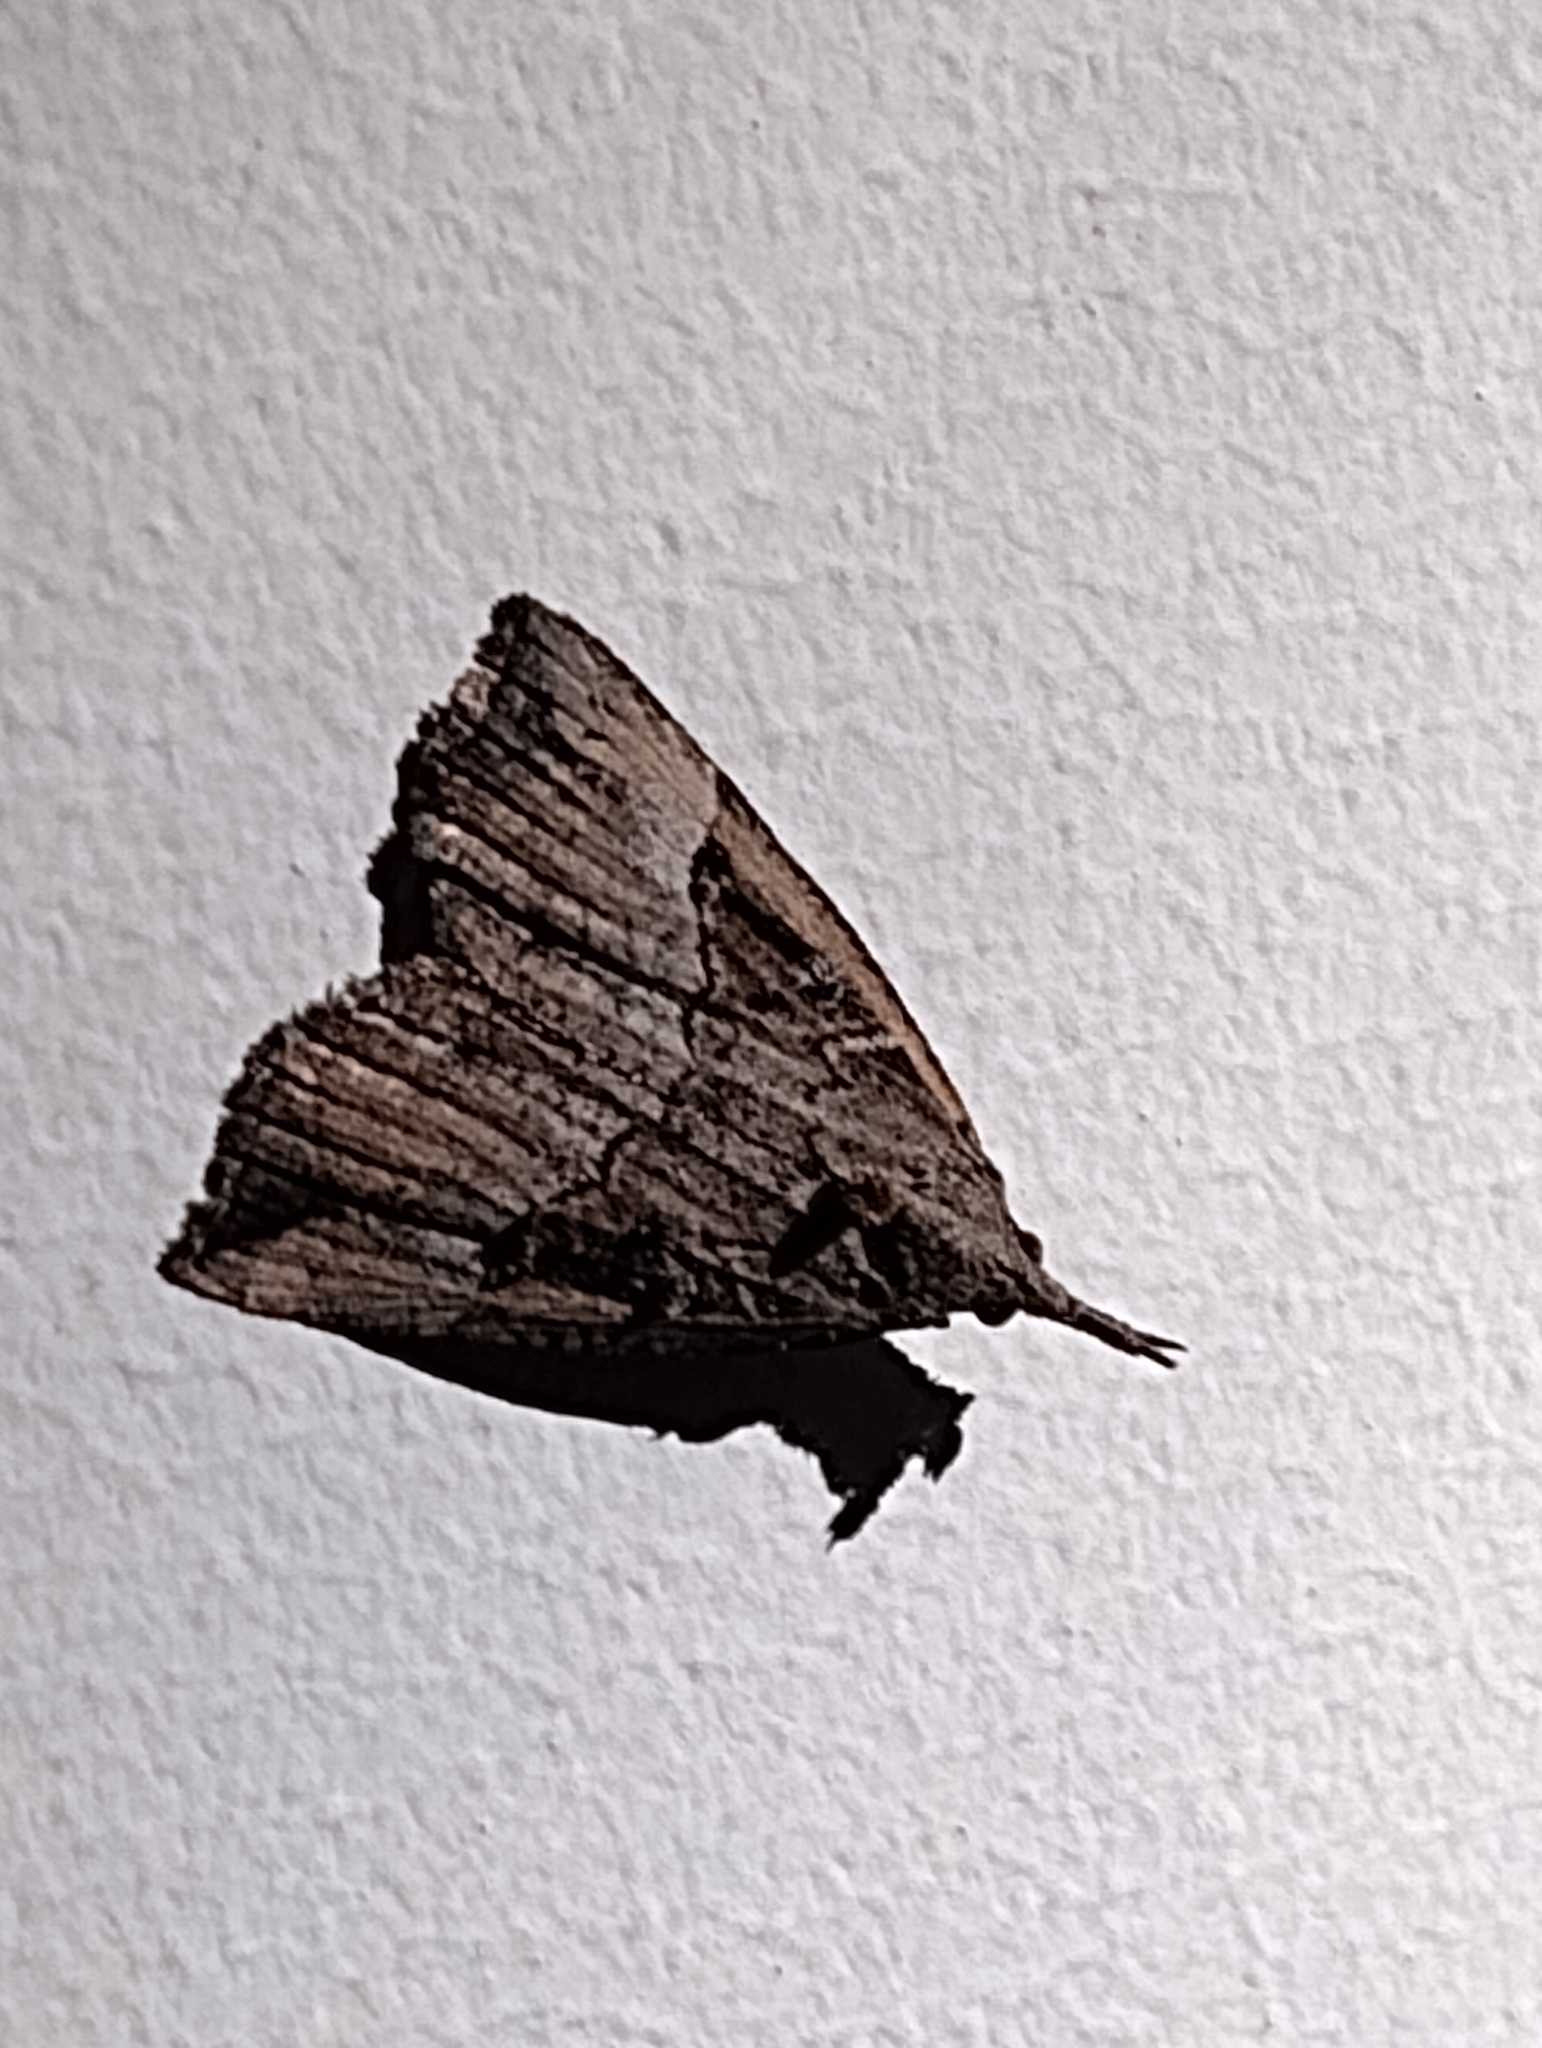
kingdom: Animalia
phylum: Arthropoda
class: Insecta
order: Lepidoptera
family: Erebidae
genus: Hypena
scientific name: Hypena rostralis
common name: Buttoned snout
